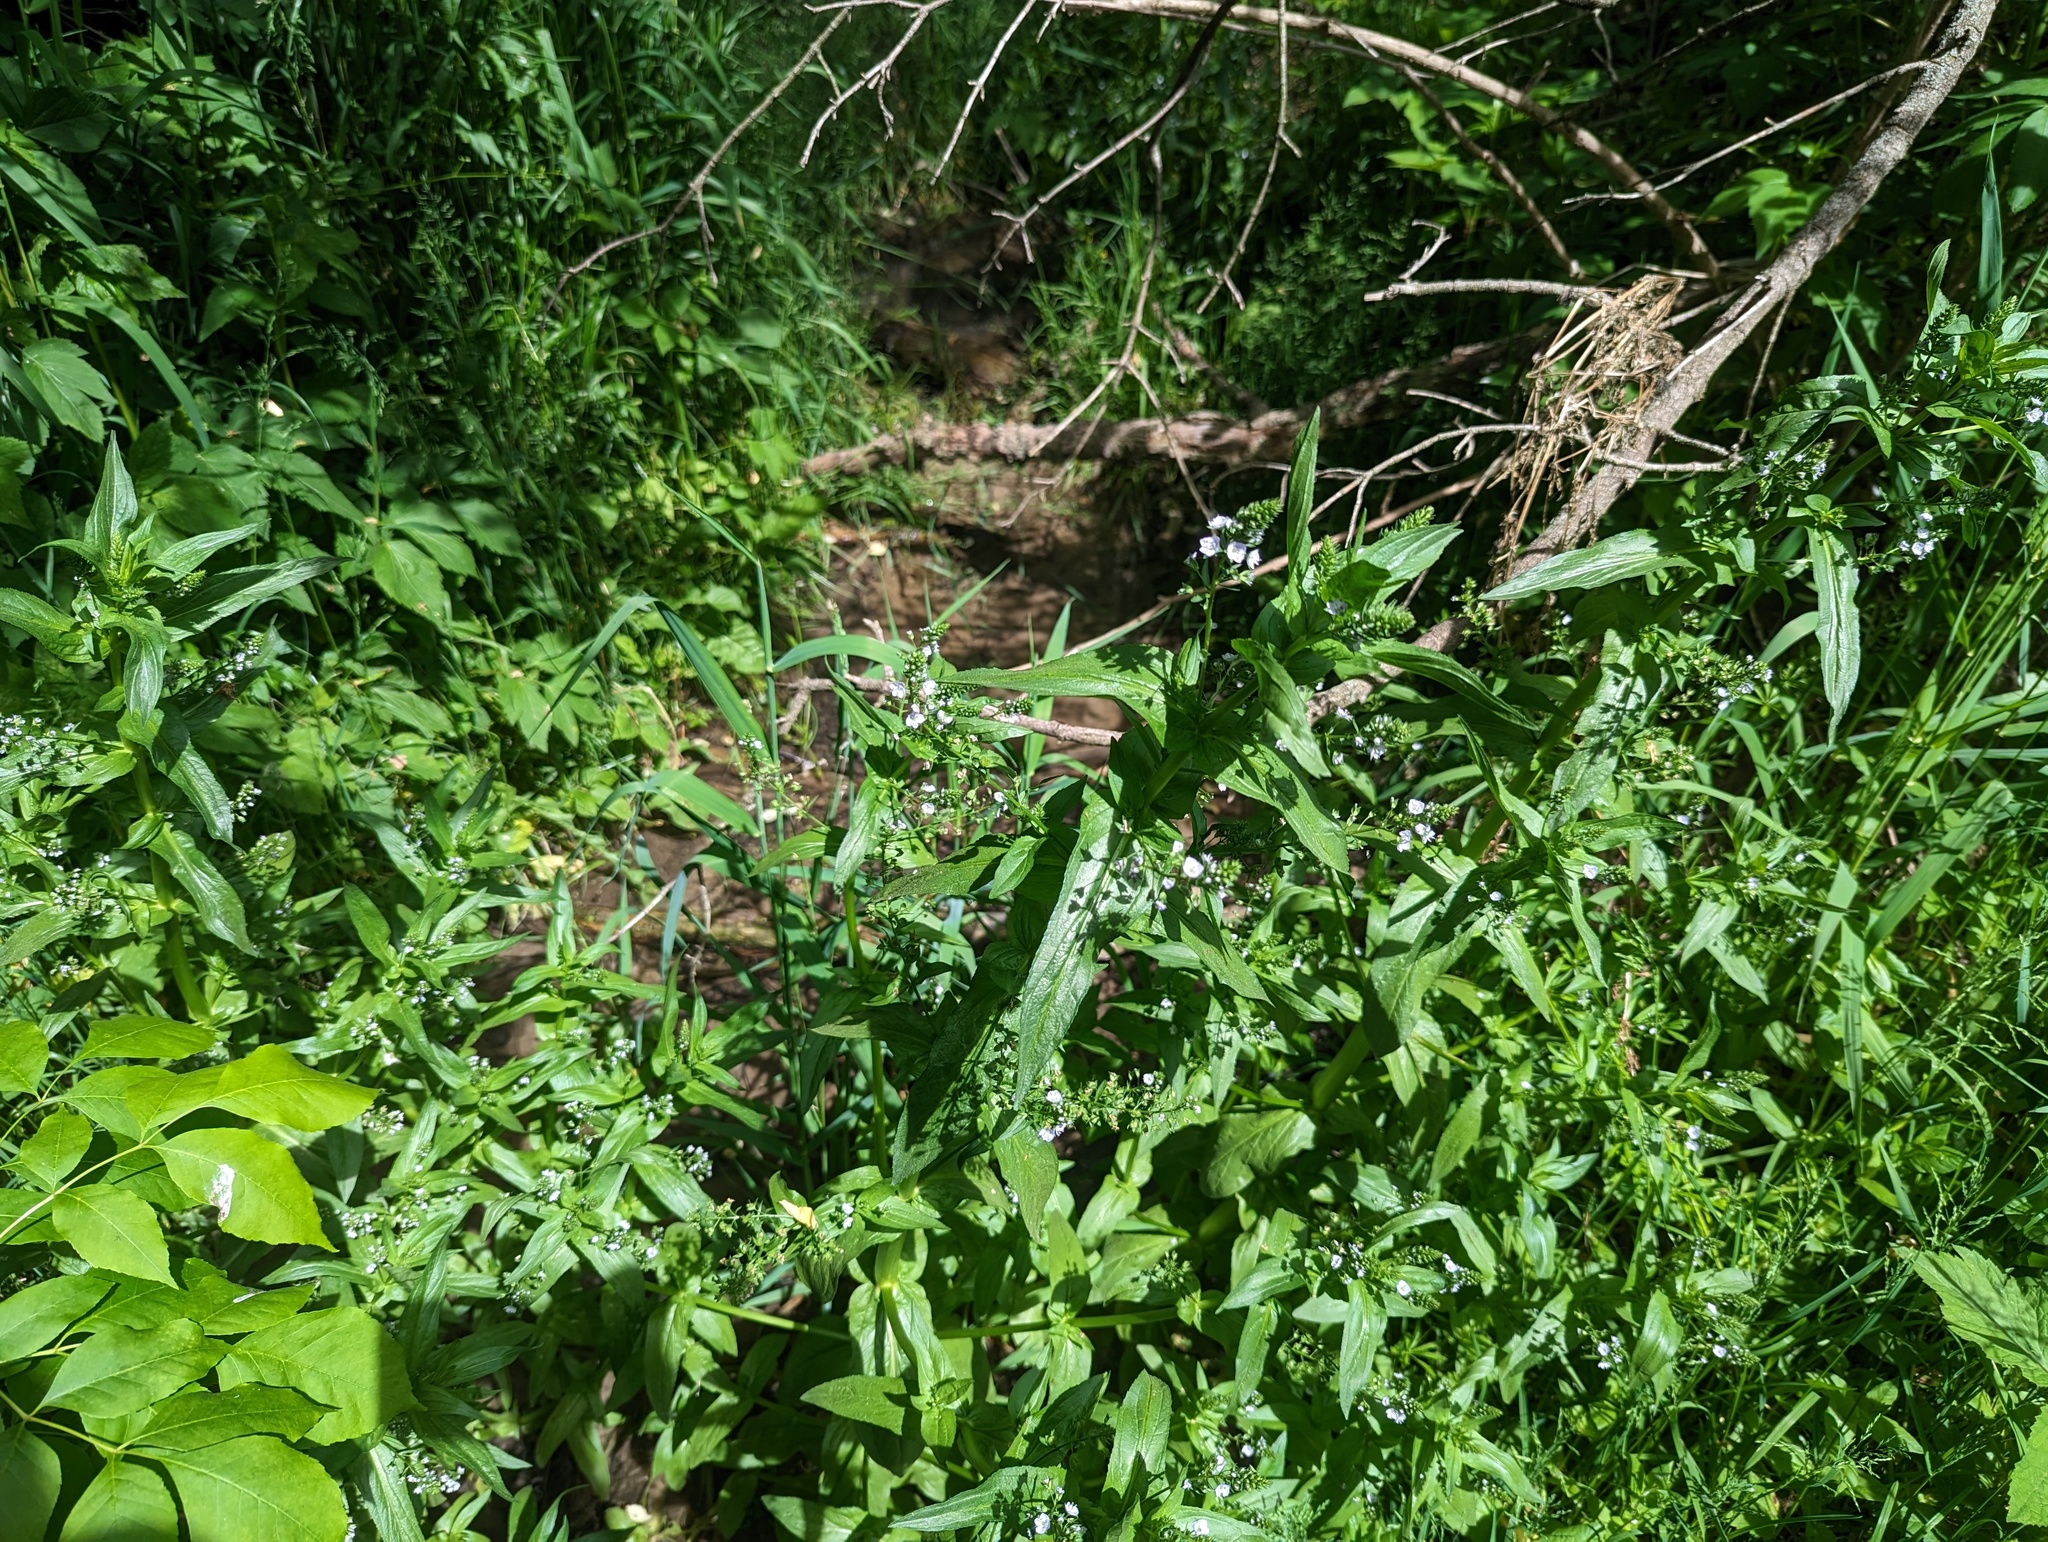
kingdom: Plantae
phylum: Tracheophyta
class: Magnoliopsida
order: Lamiales
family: Plantaginaceae
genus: Veronica
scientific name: Veronica anagallis-aquatica
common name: Water speedwell
